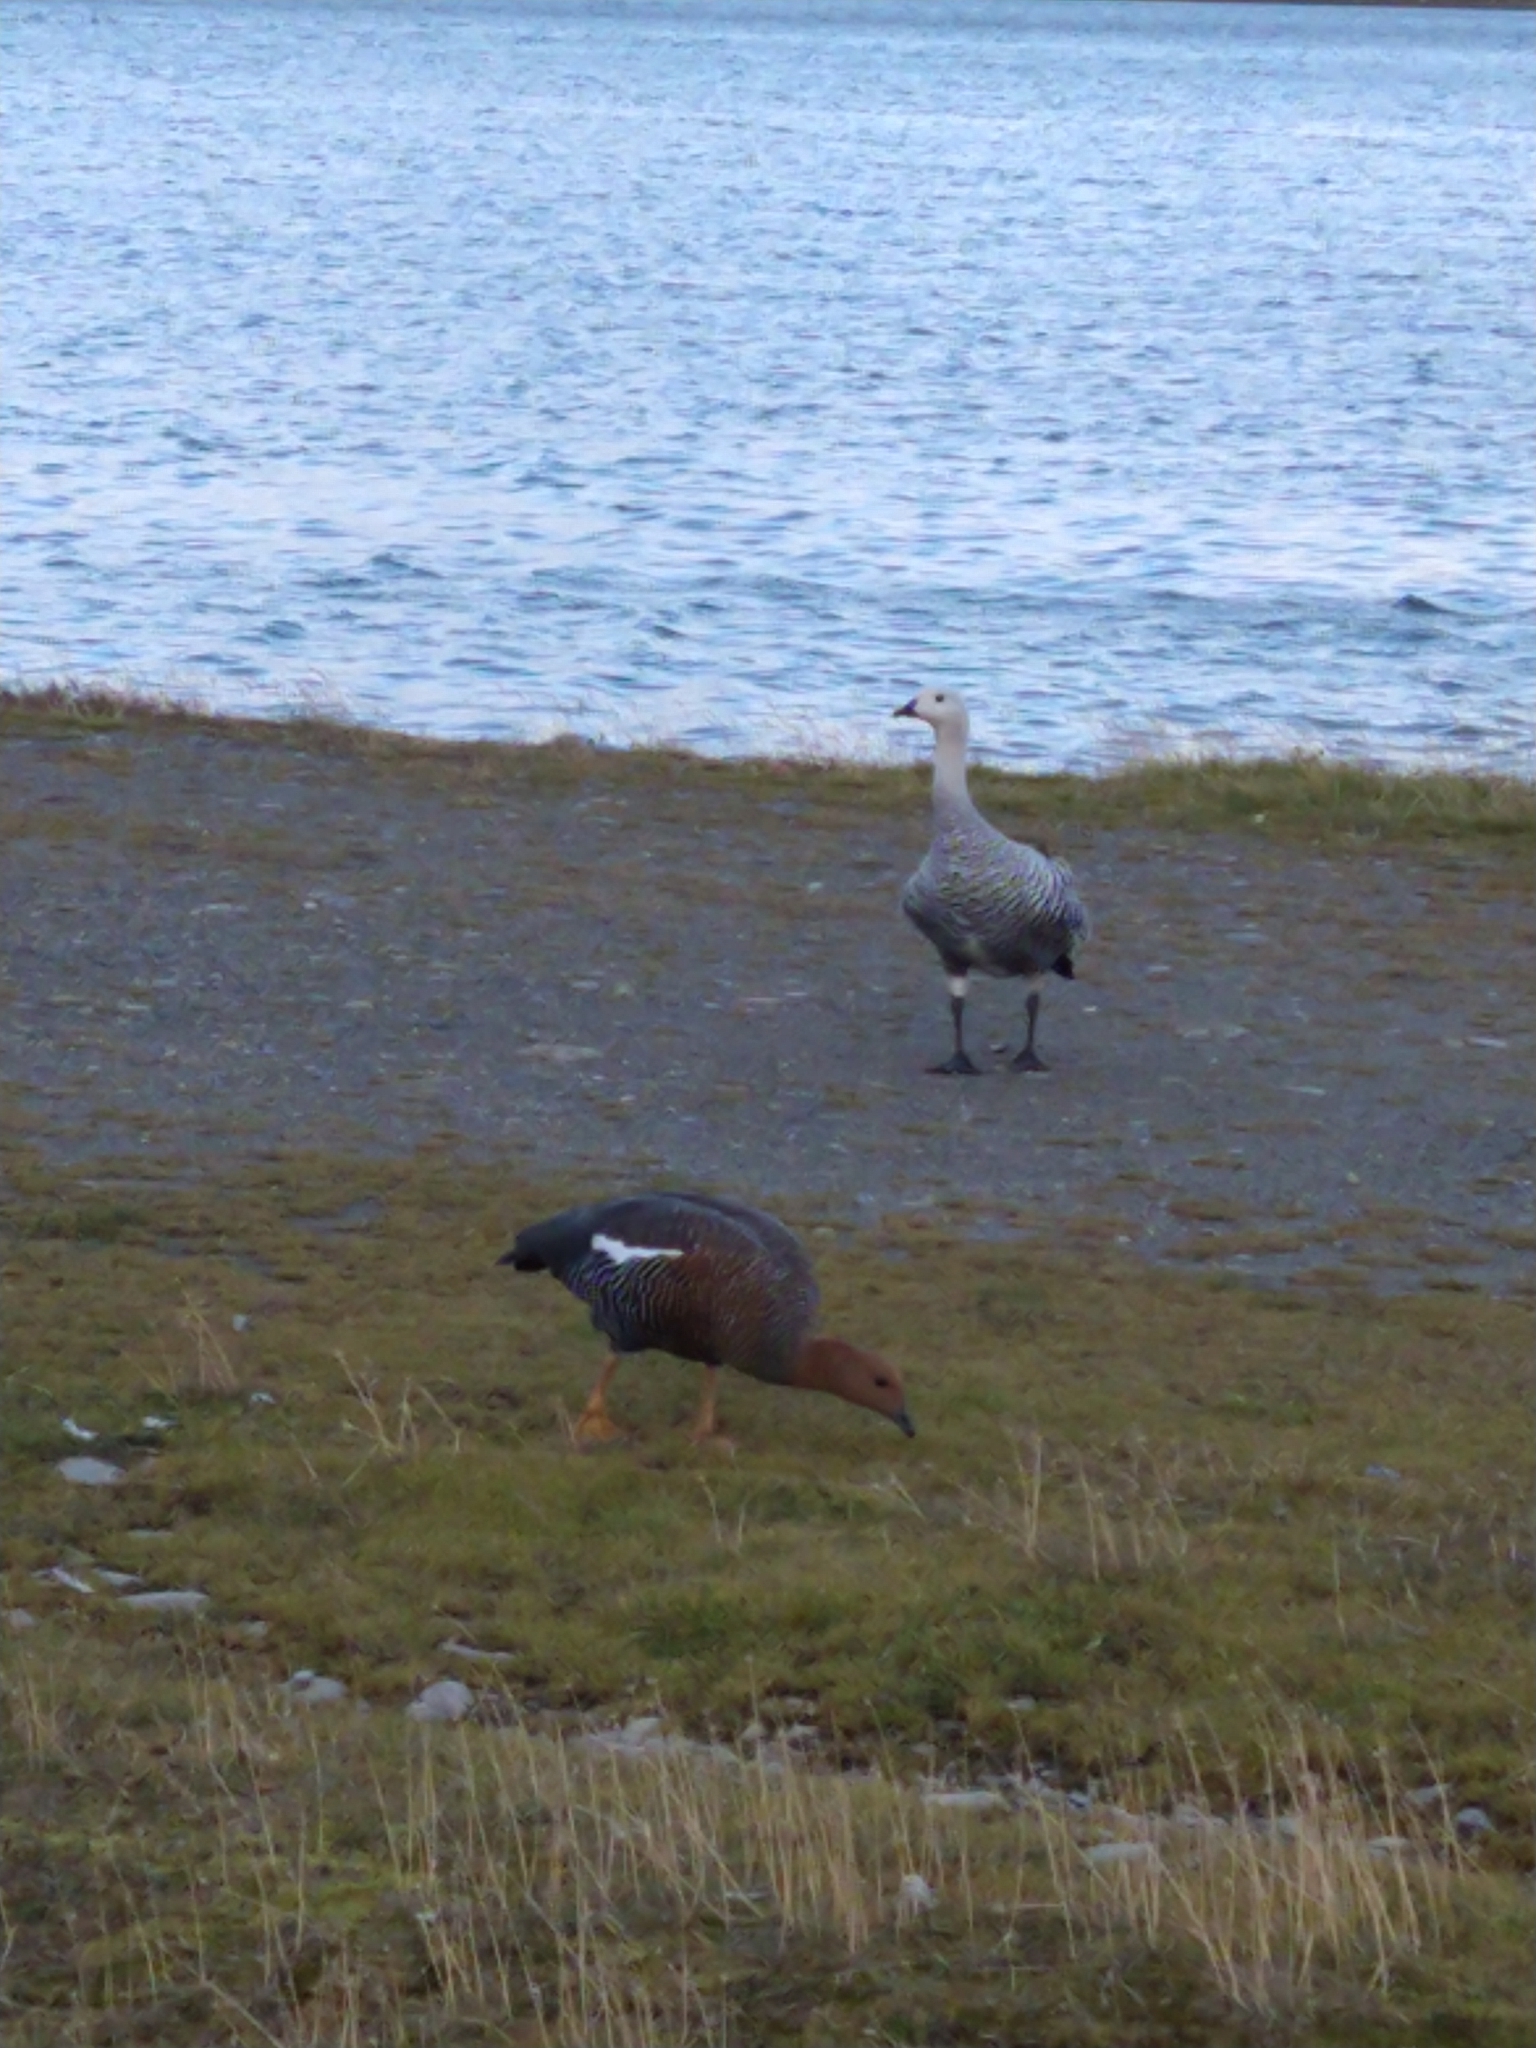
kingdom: Animalia
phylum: Chordata
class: Aves
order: Anseriformes
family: Anatidae
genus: Chloephaga
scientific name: Chloephaga picta
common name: Upland goose
